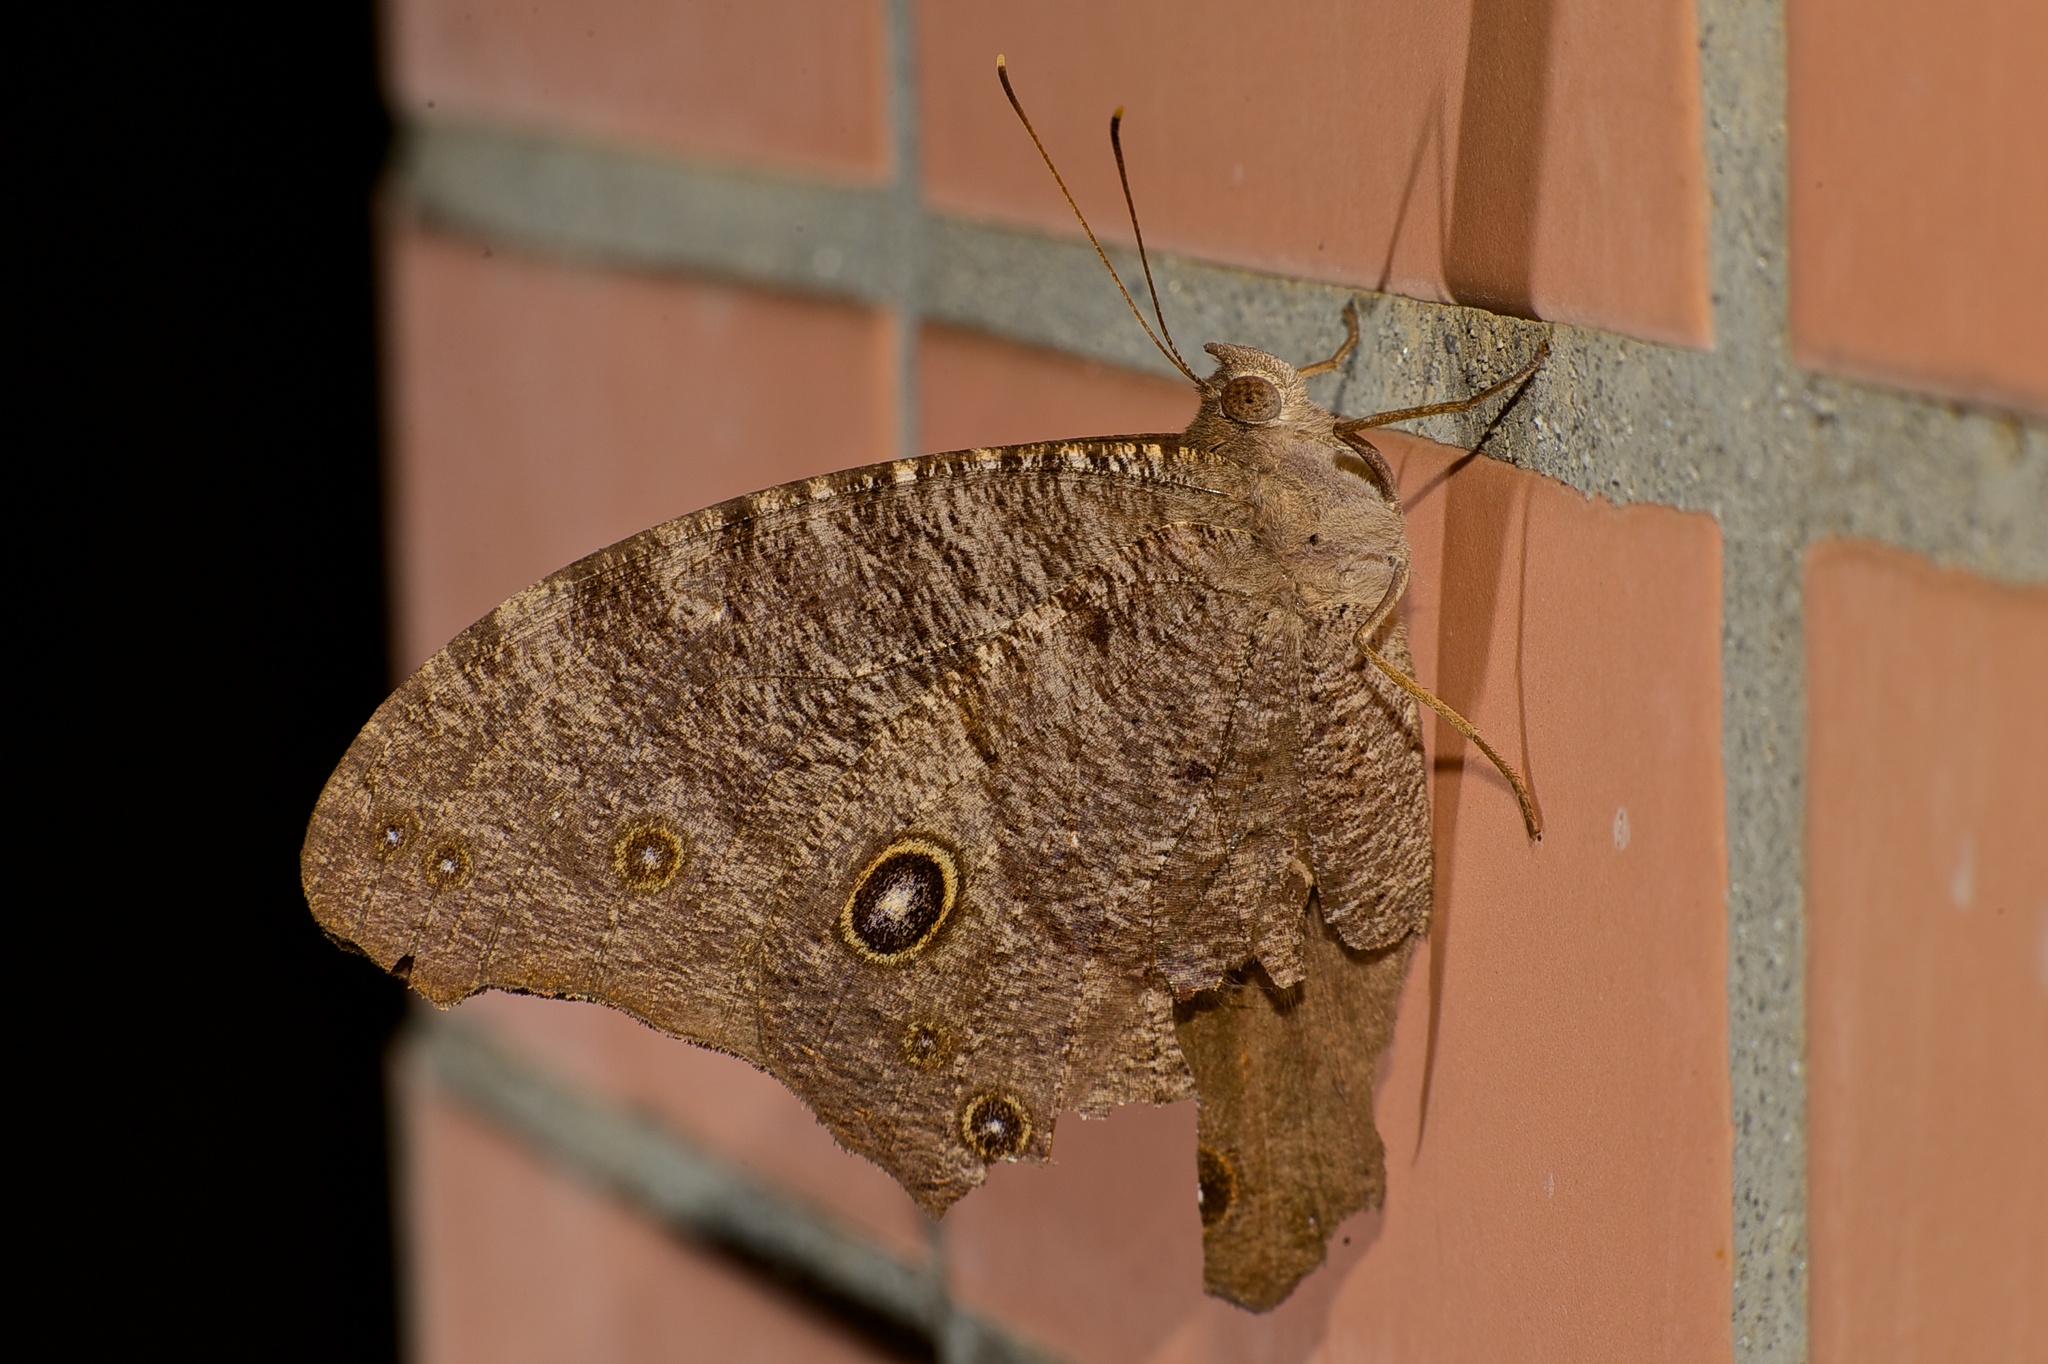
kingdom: Animalia
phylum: Arthropoda
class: Insecta
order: Lepidoptera
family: Nymphalidae
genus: Melanitis
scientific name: Melanitis leda
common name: Twilight brown
